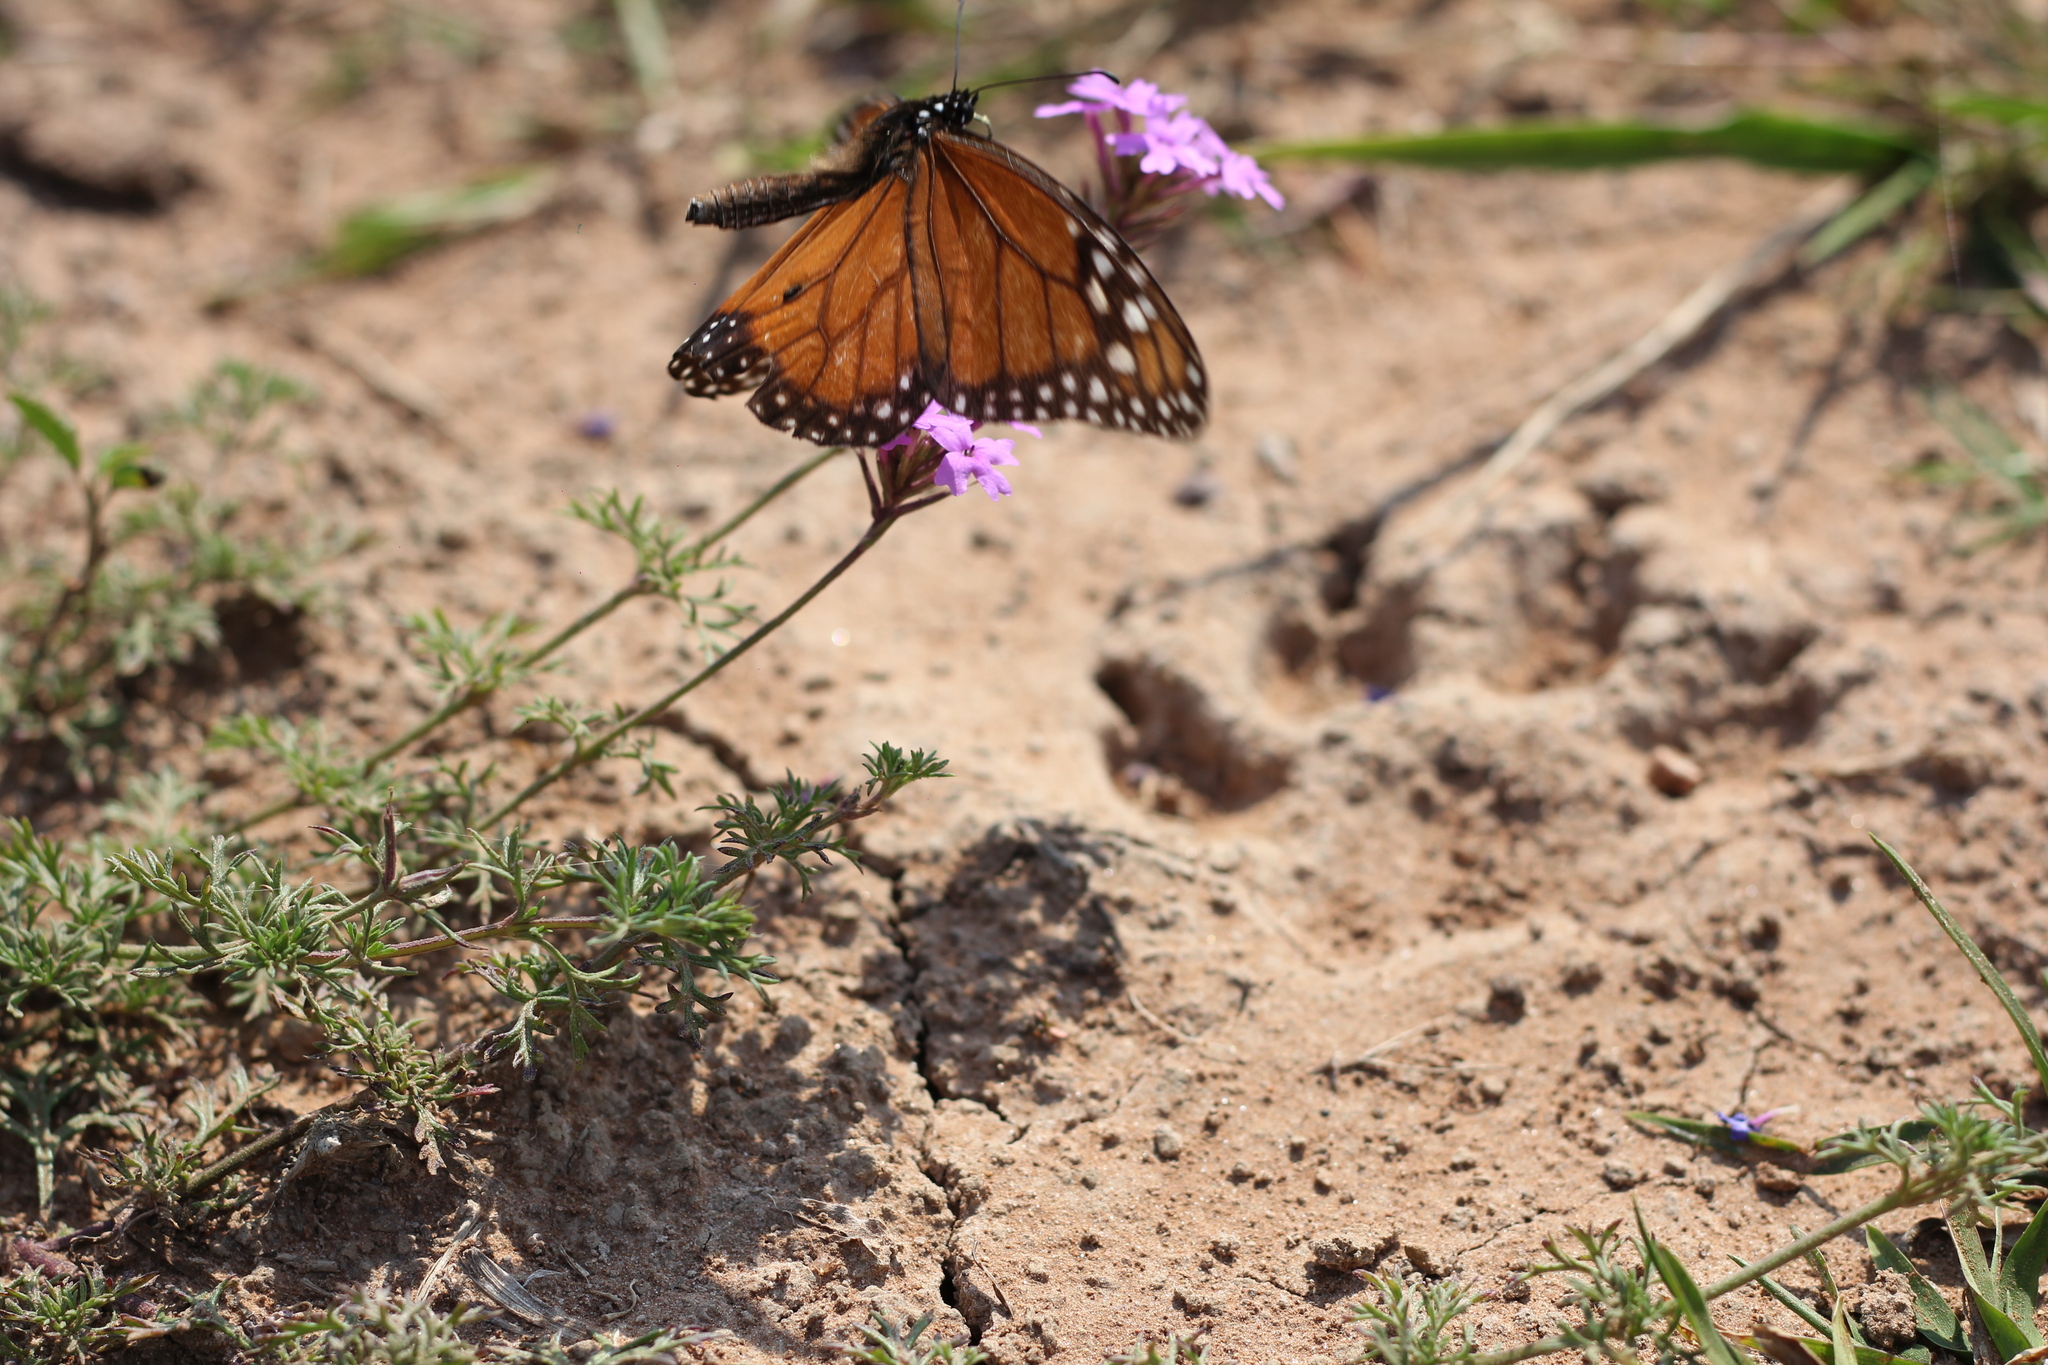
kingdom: Animalia
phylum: Arthropoda
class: Insecta
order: Lepidoptera
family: Nymphalidae
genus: Danaus
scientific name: Danaus erippus
